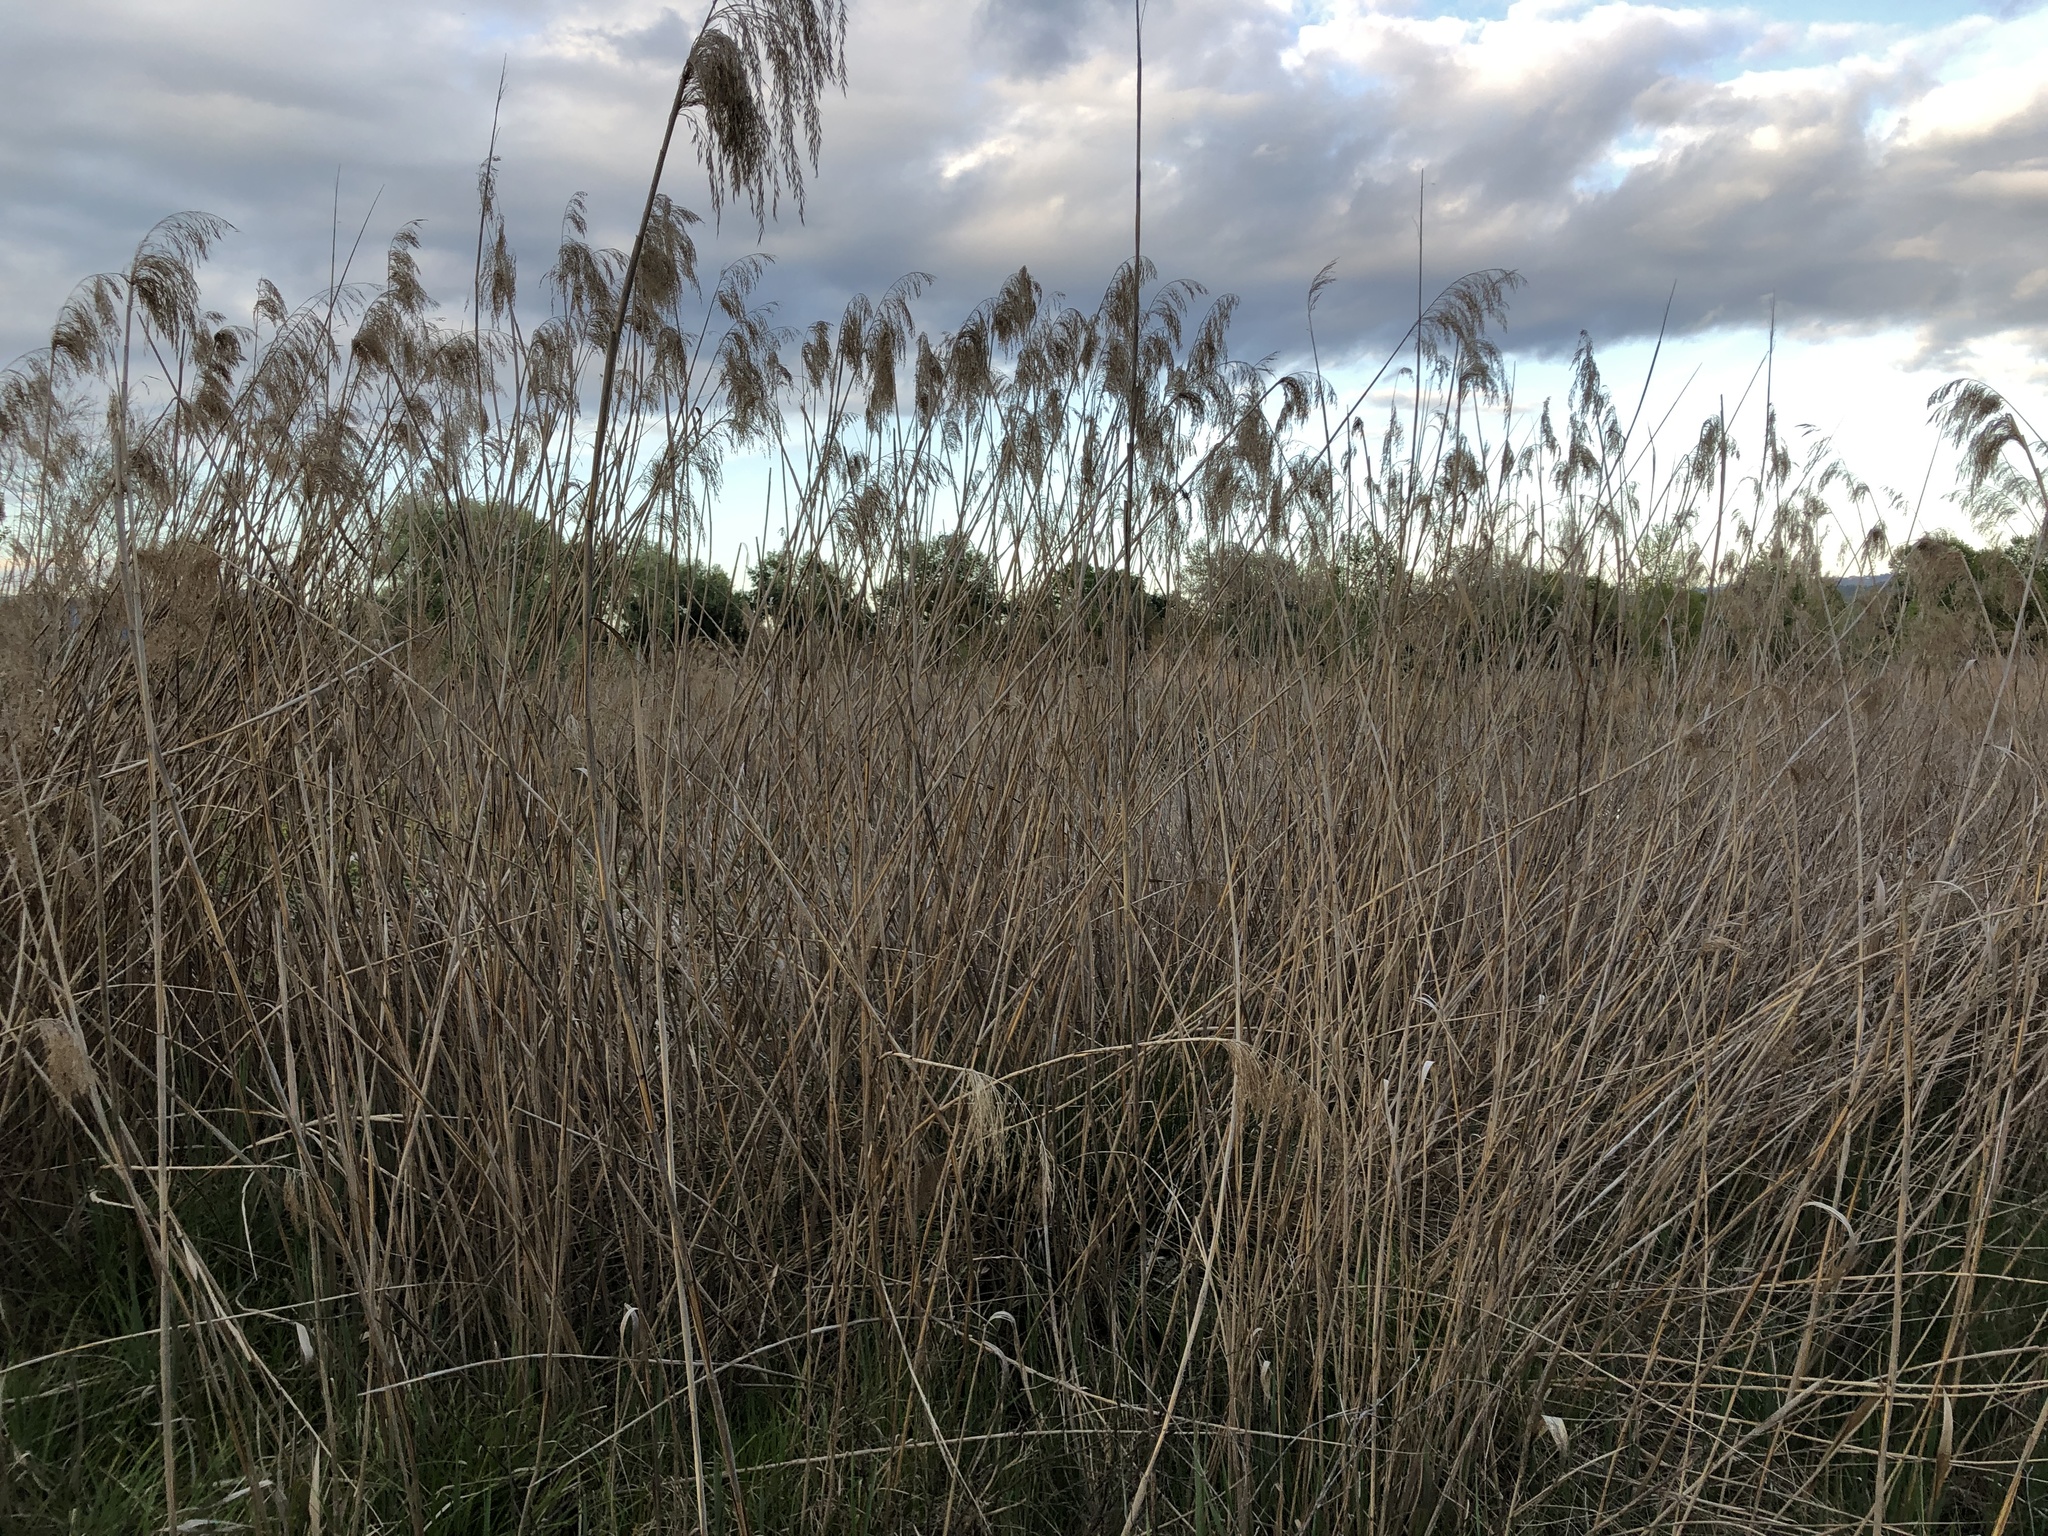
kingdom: Plantae
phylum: Tracheophyta
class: Liliopsida
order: Poales
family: Poaceae
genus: Phragmites
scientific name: Phragmites australis
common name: Common reed
